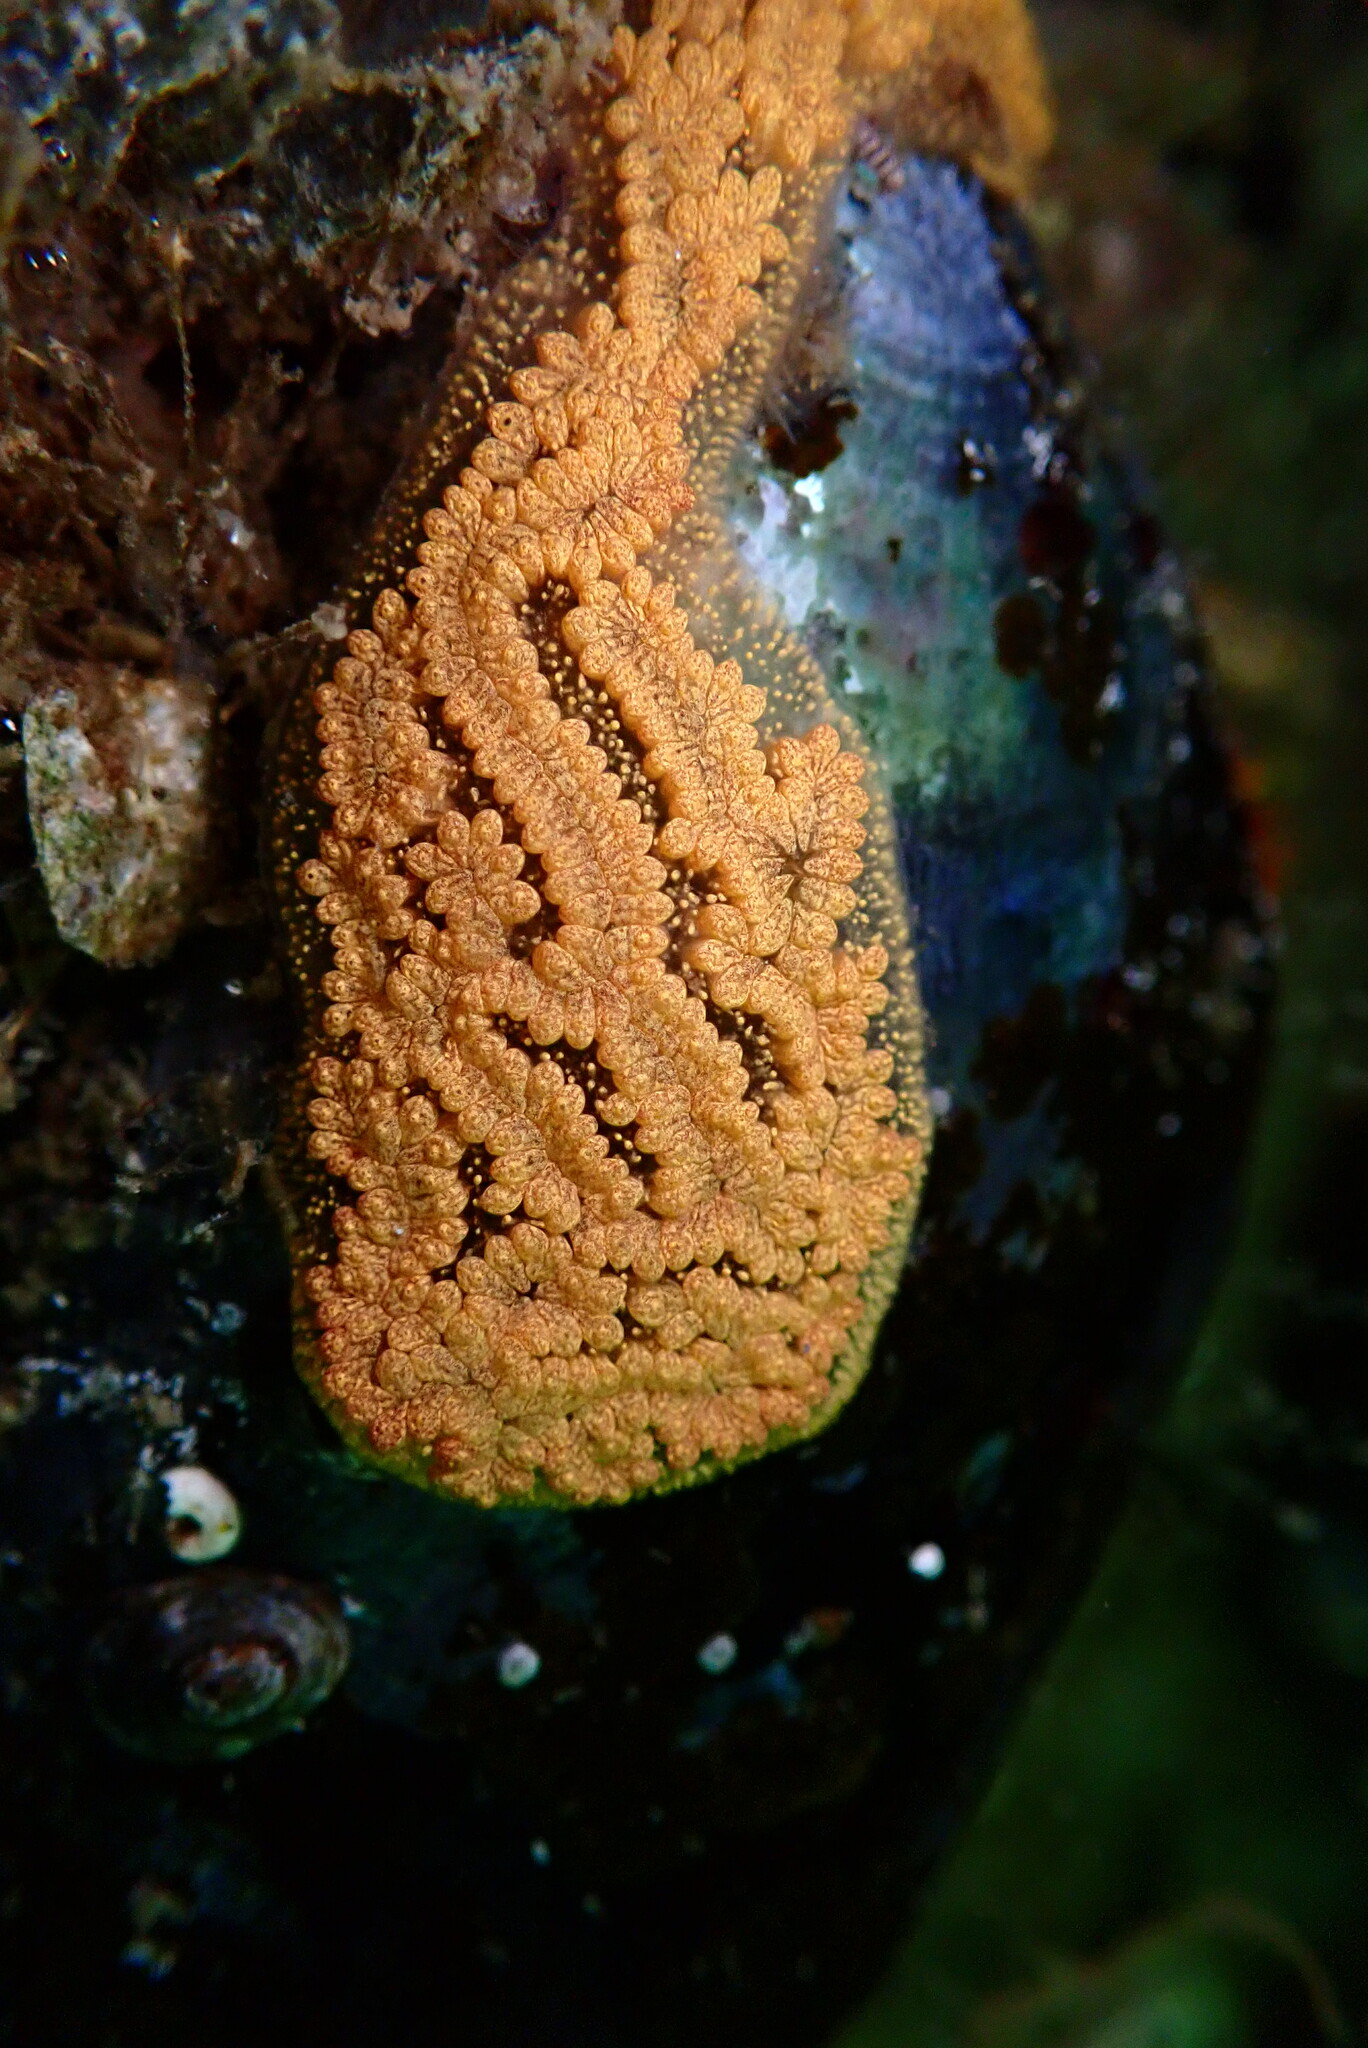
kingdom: Animalia
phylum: Chordata
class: Ascidiacea
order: Stolidobranchia
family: Styelidae
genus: Botrylloides
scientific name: Botrylloides violaceus
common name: Colonial sea squirt
